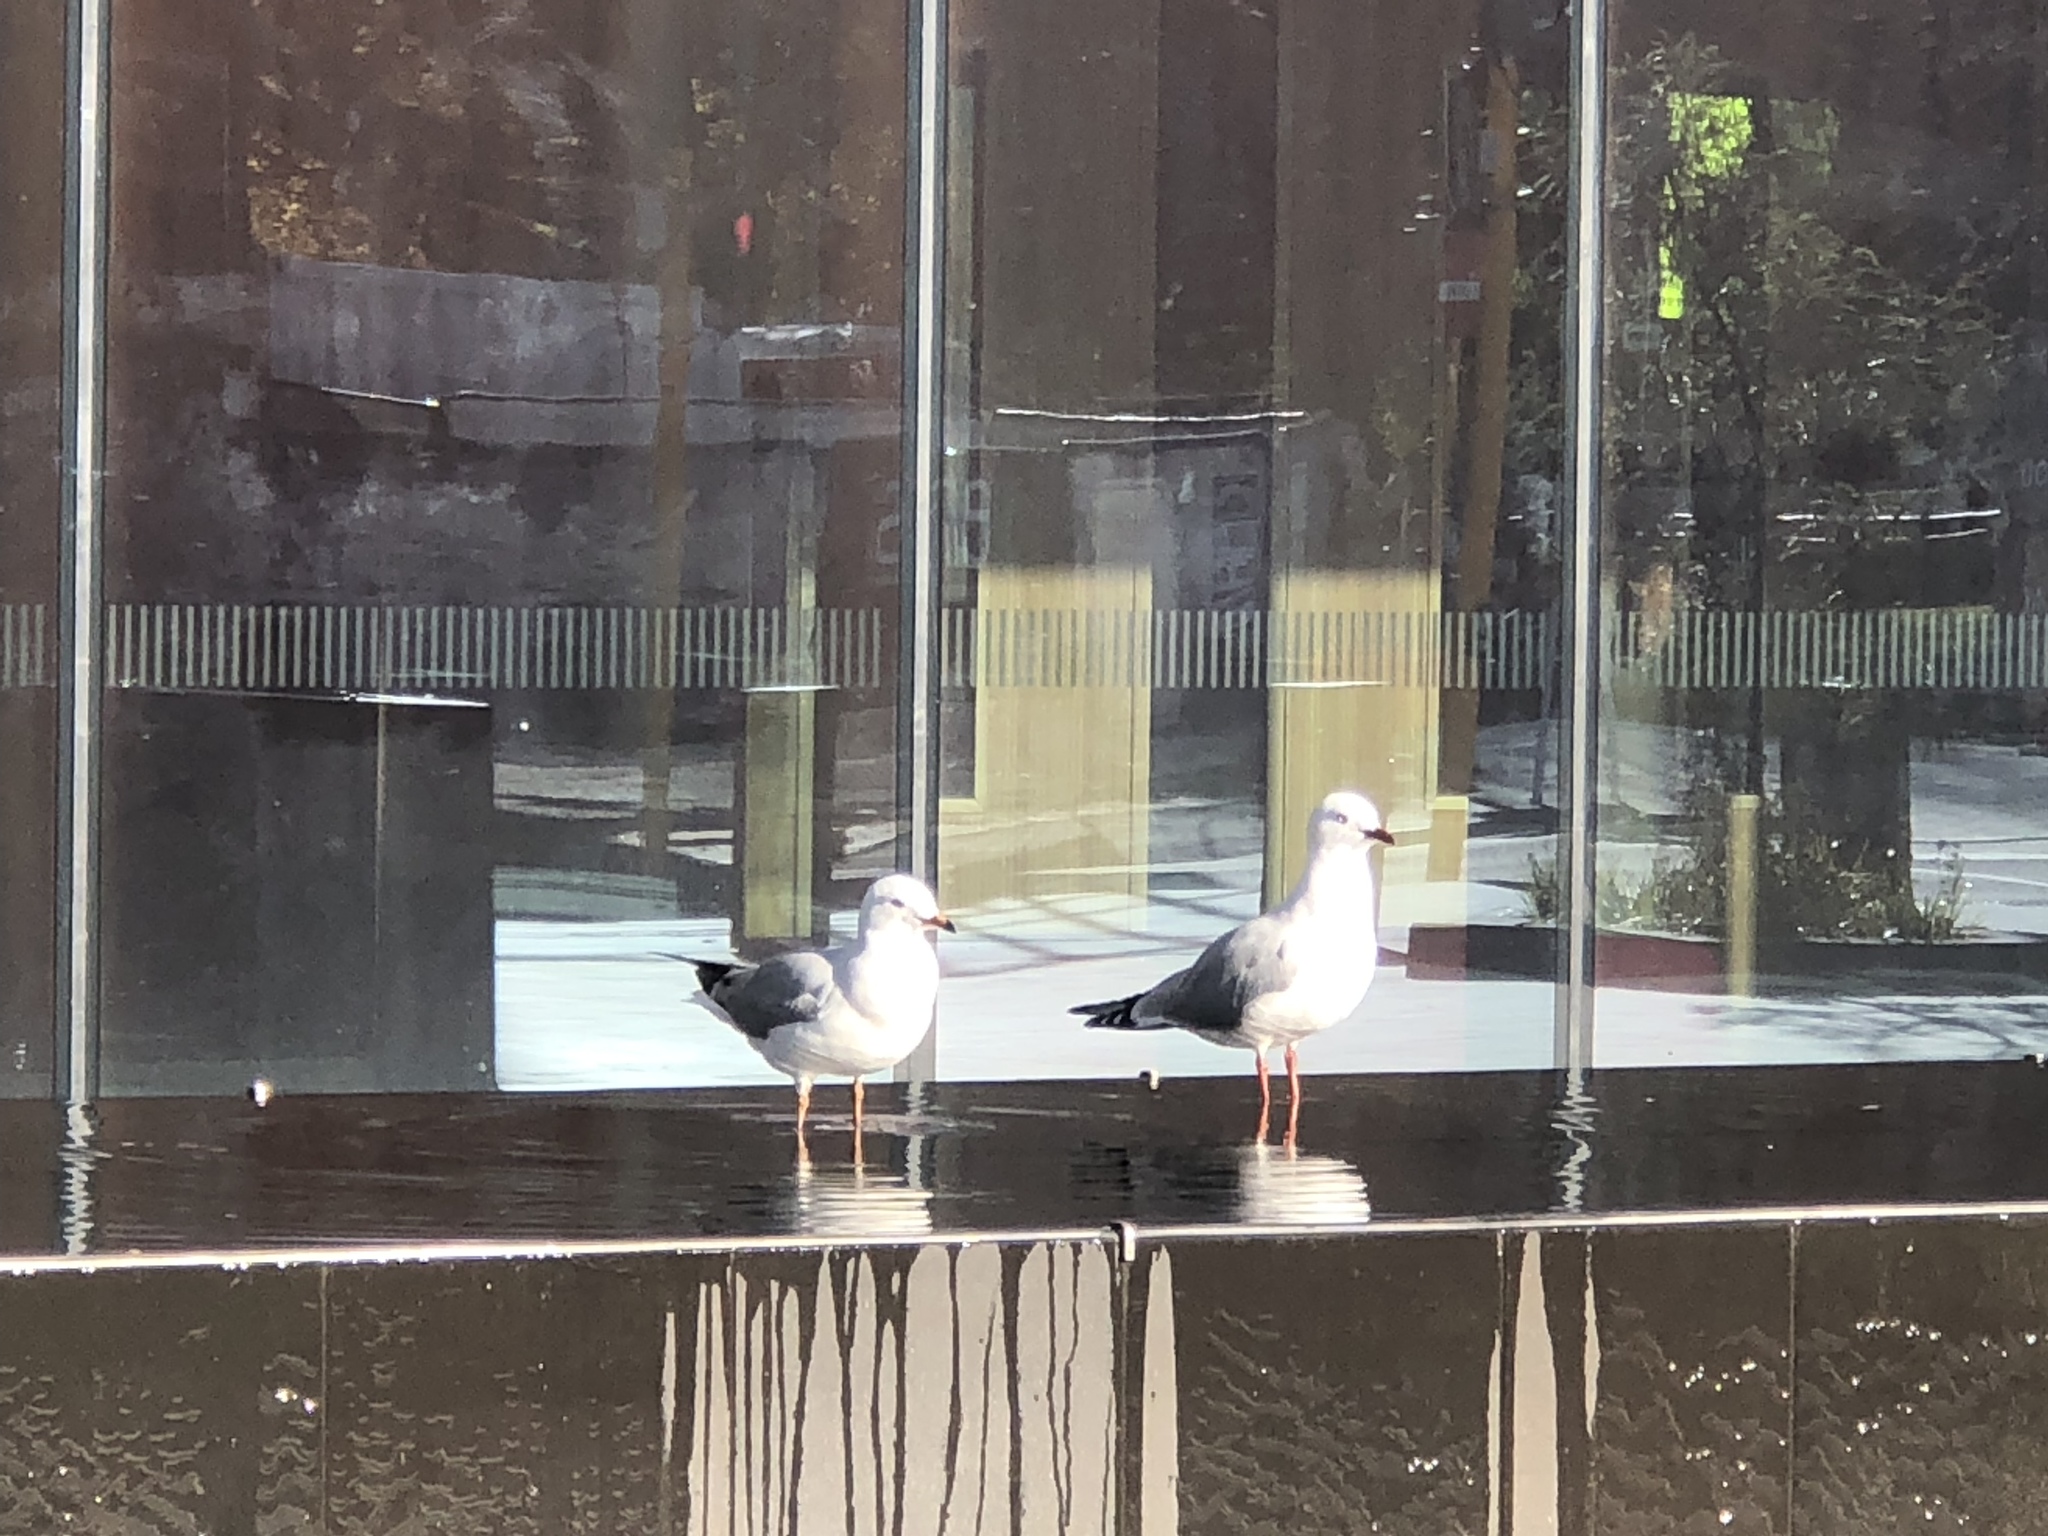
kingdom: Animalia
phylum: Chordata
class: Aves
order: Charadriiformes
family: Laridae
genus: Chroicocephalus
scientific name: Chroicocephalus novaehollandiae
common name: Silver gull
